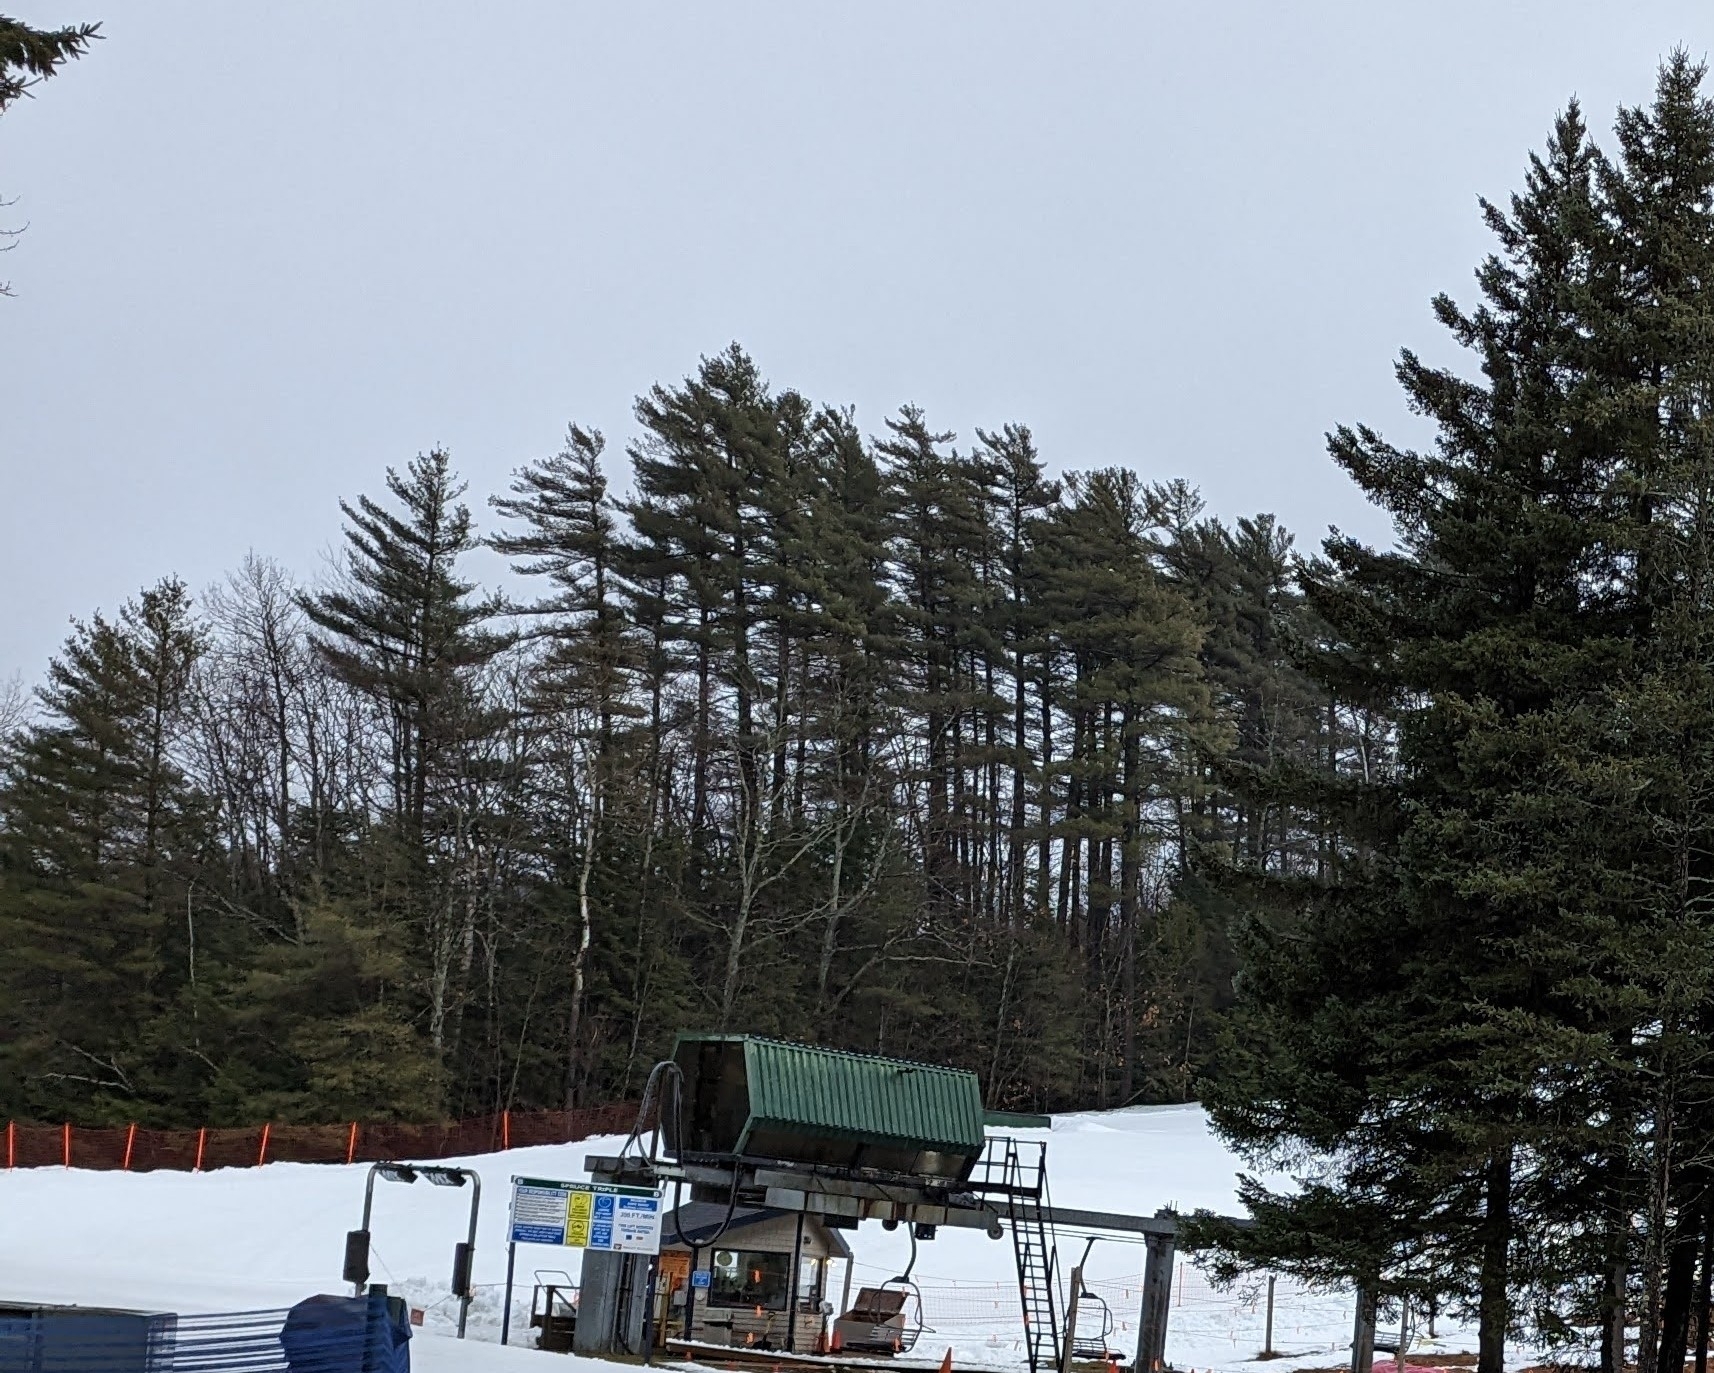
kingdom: Plantae
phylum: Tracheophyta
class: Pinopsida
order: Pinales
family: Pinaceae
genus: Pinus
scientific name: Pinus strobus
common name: Weymouth pine
